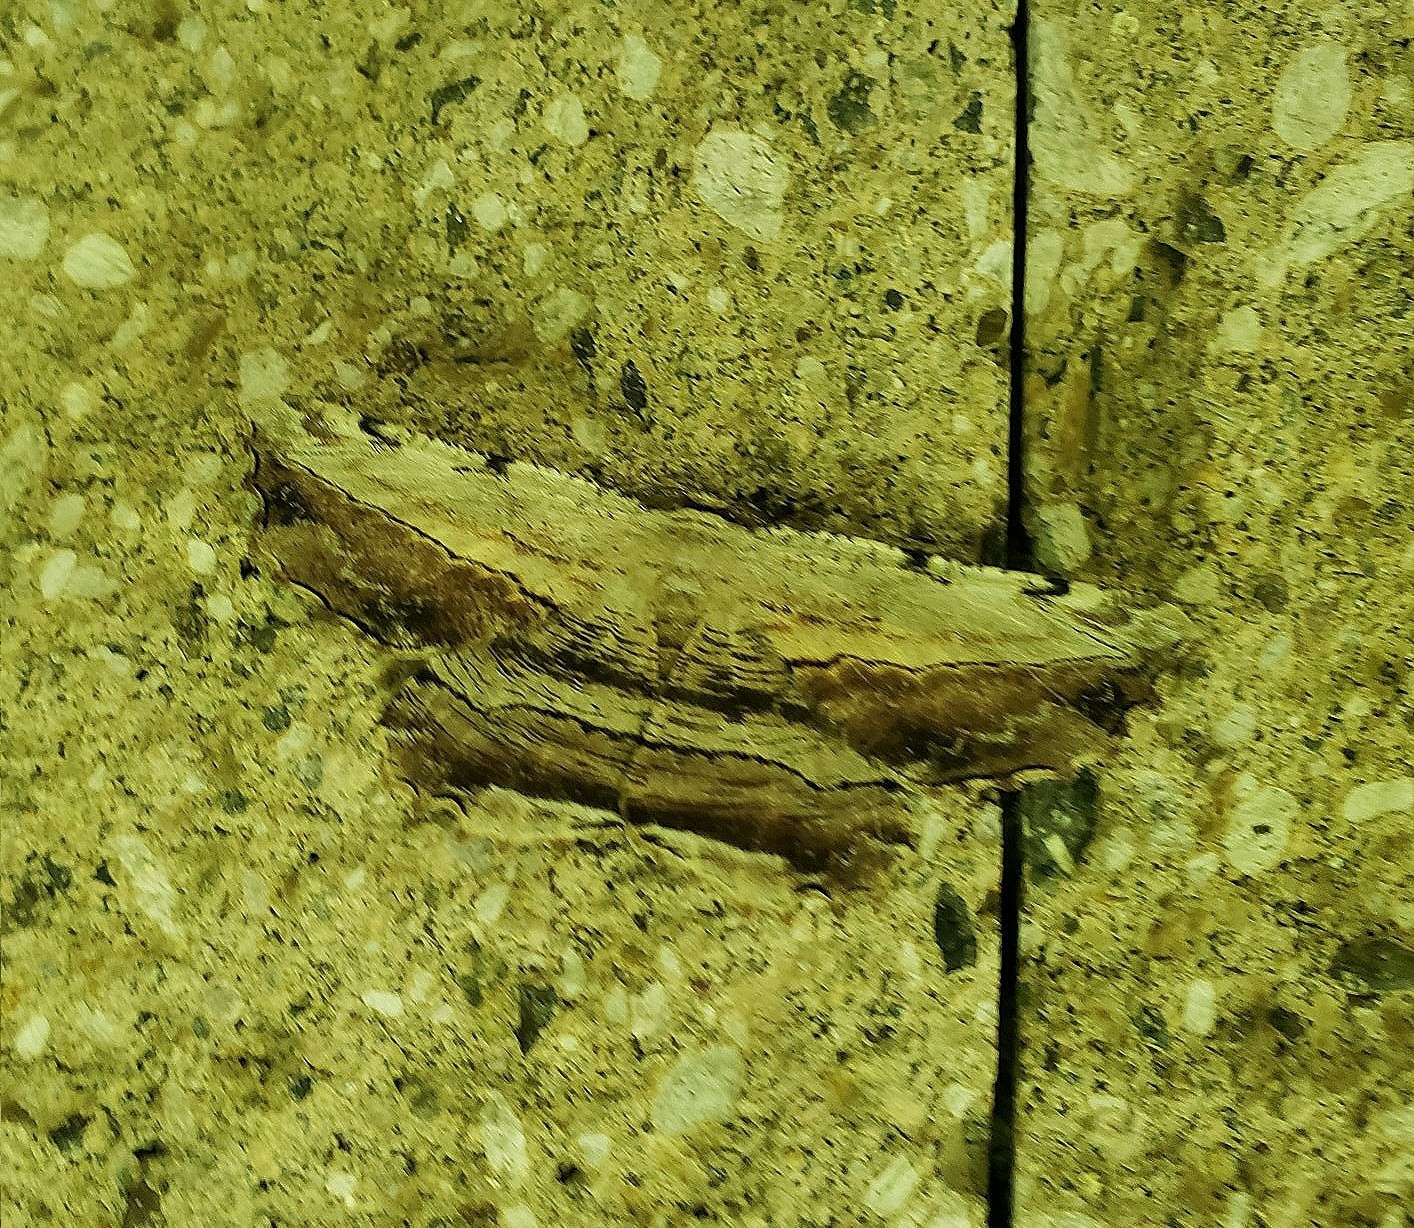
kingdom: Animalia
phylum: Arthropoda
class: Insecta
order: Lepidoptera
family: Geometridae
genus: Lytrosis
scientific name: Lytrosis unitaria
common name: Common lytrosis
